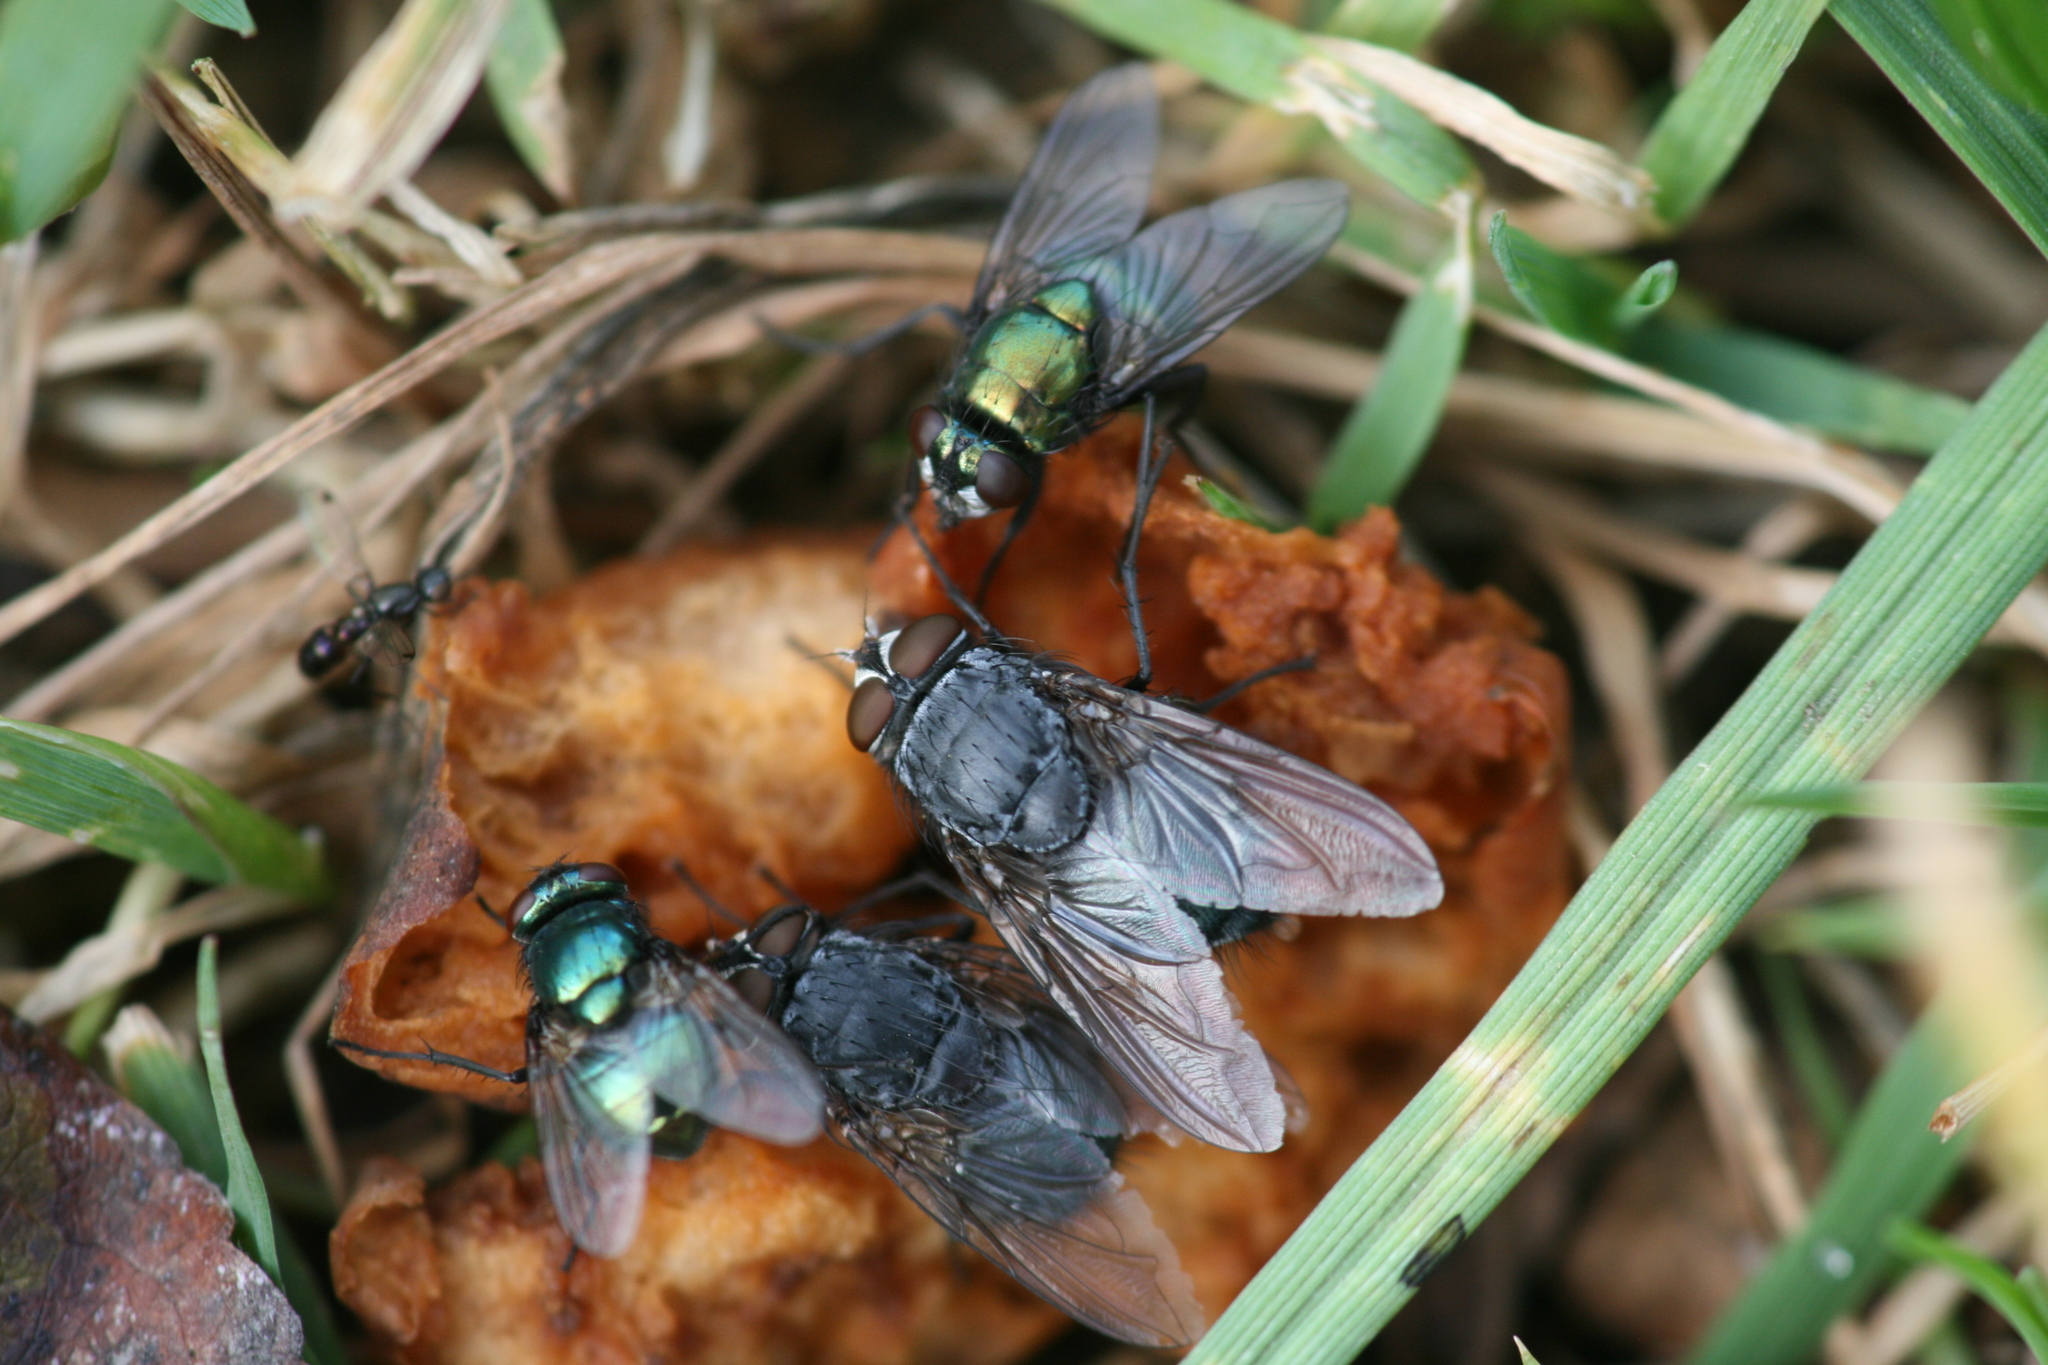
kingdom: Animalia
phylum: Arthropoda
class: Insecta
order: Diptera
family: Calliphoridae
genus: Calliphora
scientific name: Calliphora vicina
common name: Common blow flie
